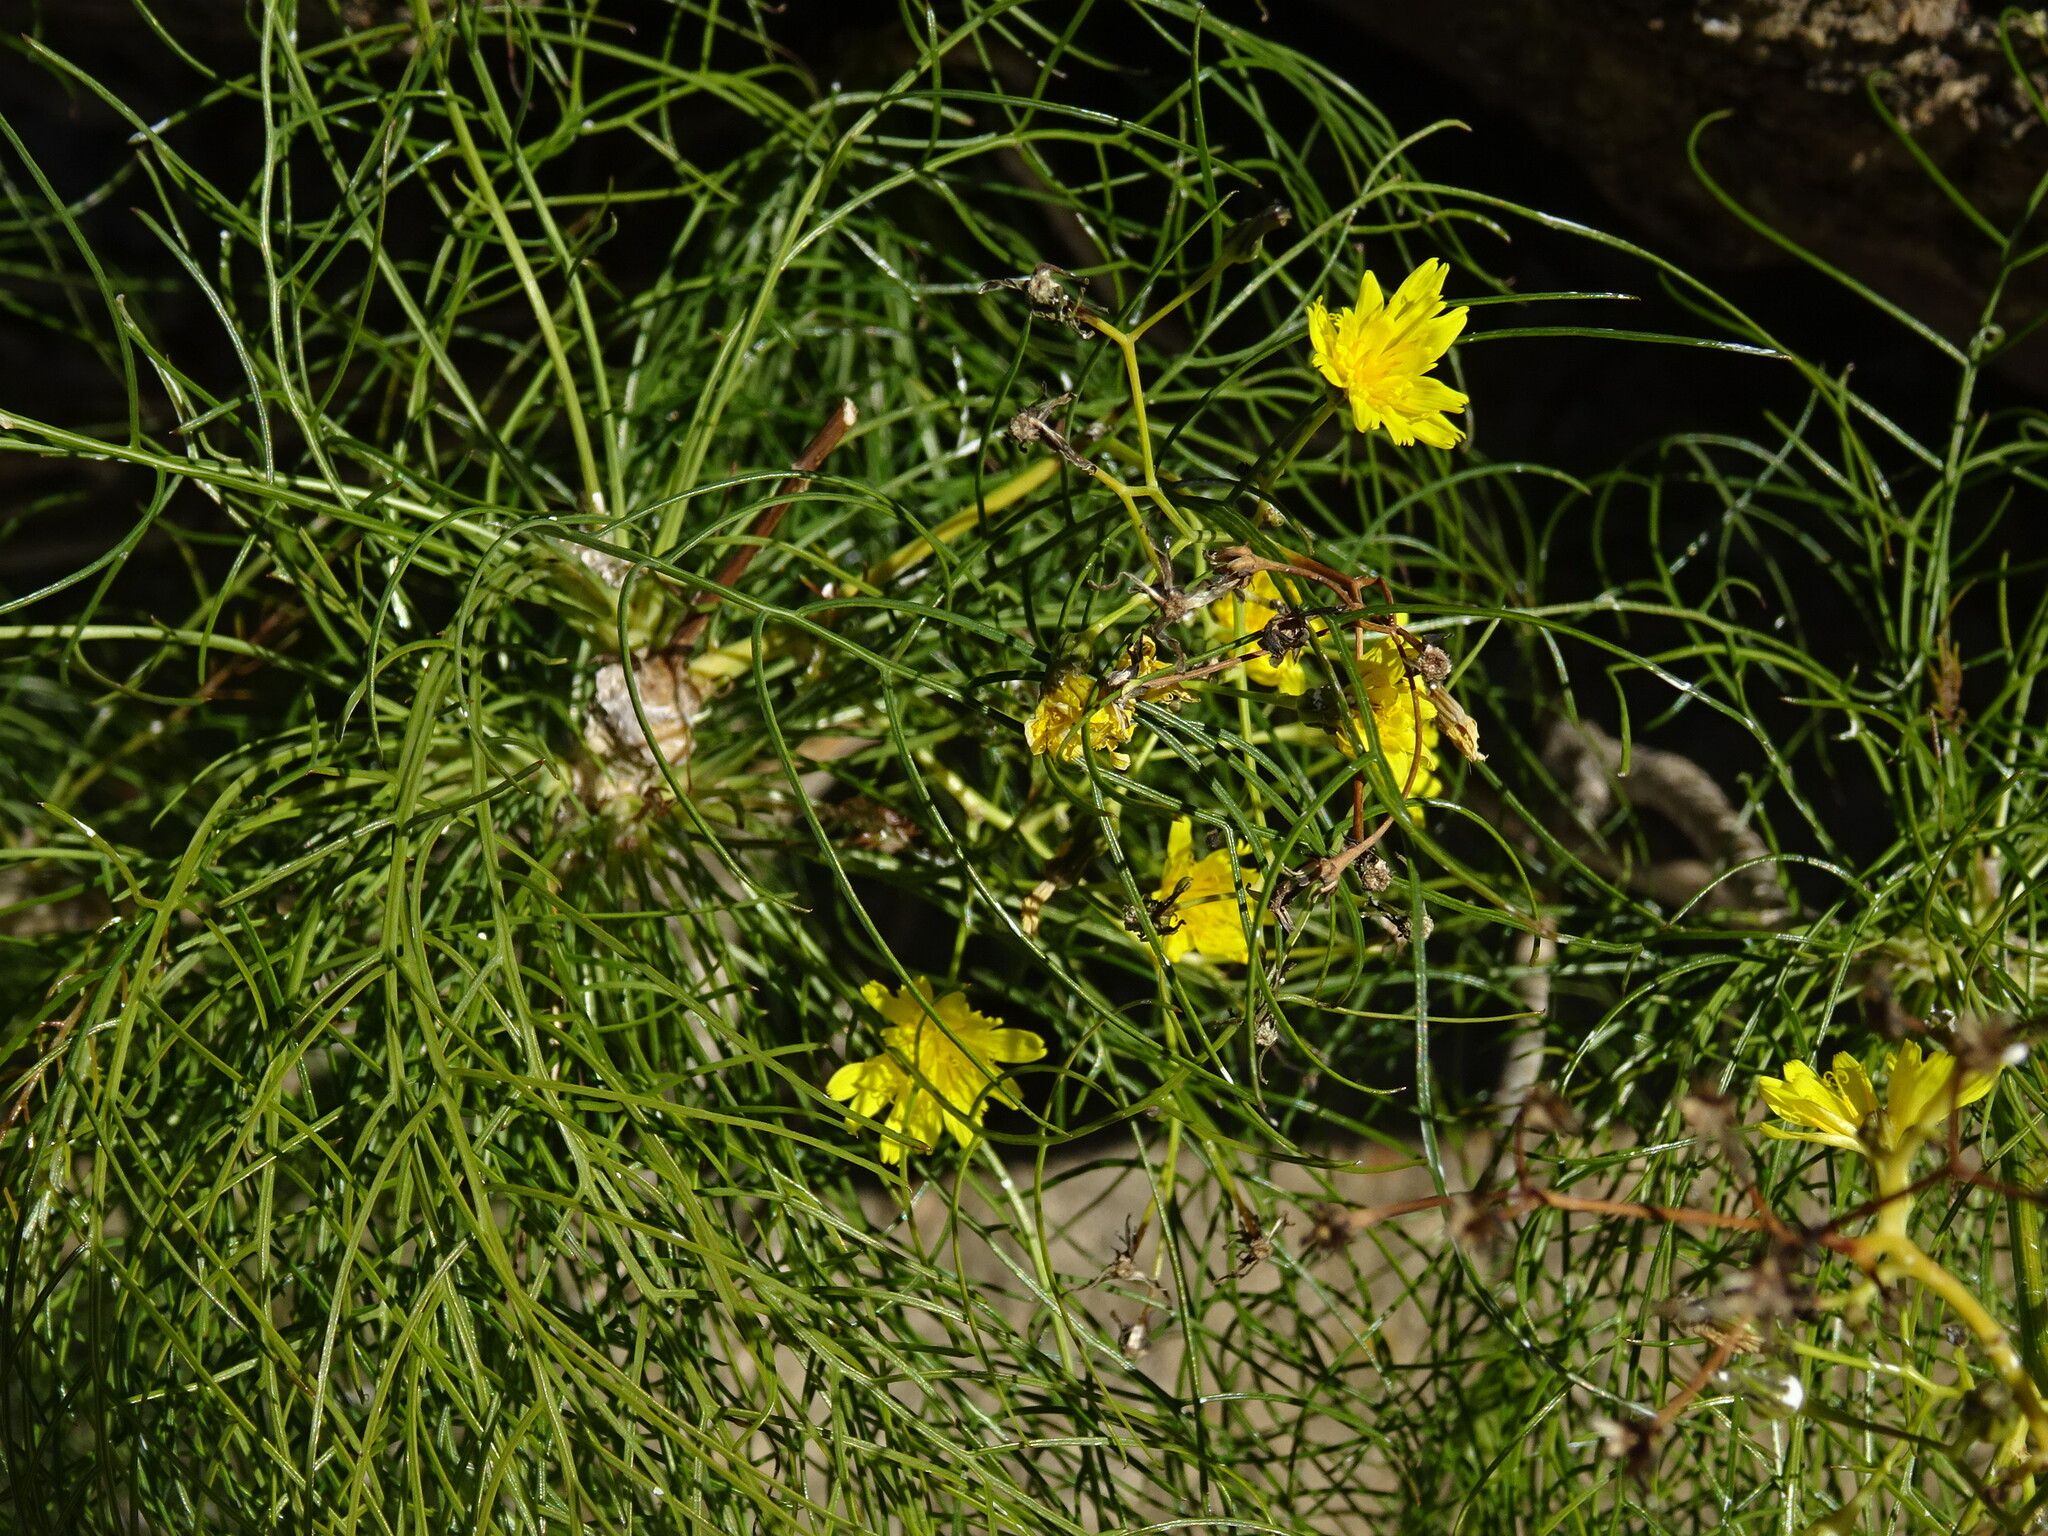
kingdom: Plantae
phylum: Tracheophyta
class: Magnoliopsida
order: Asterales
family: Asteraceae
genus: Sonchus
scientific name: Sonchus leptocephalus
